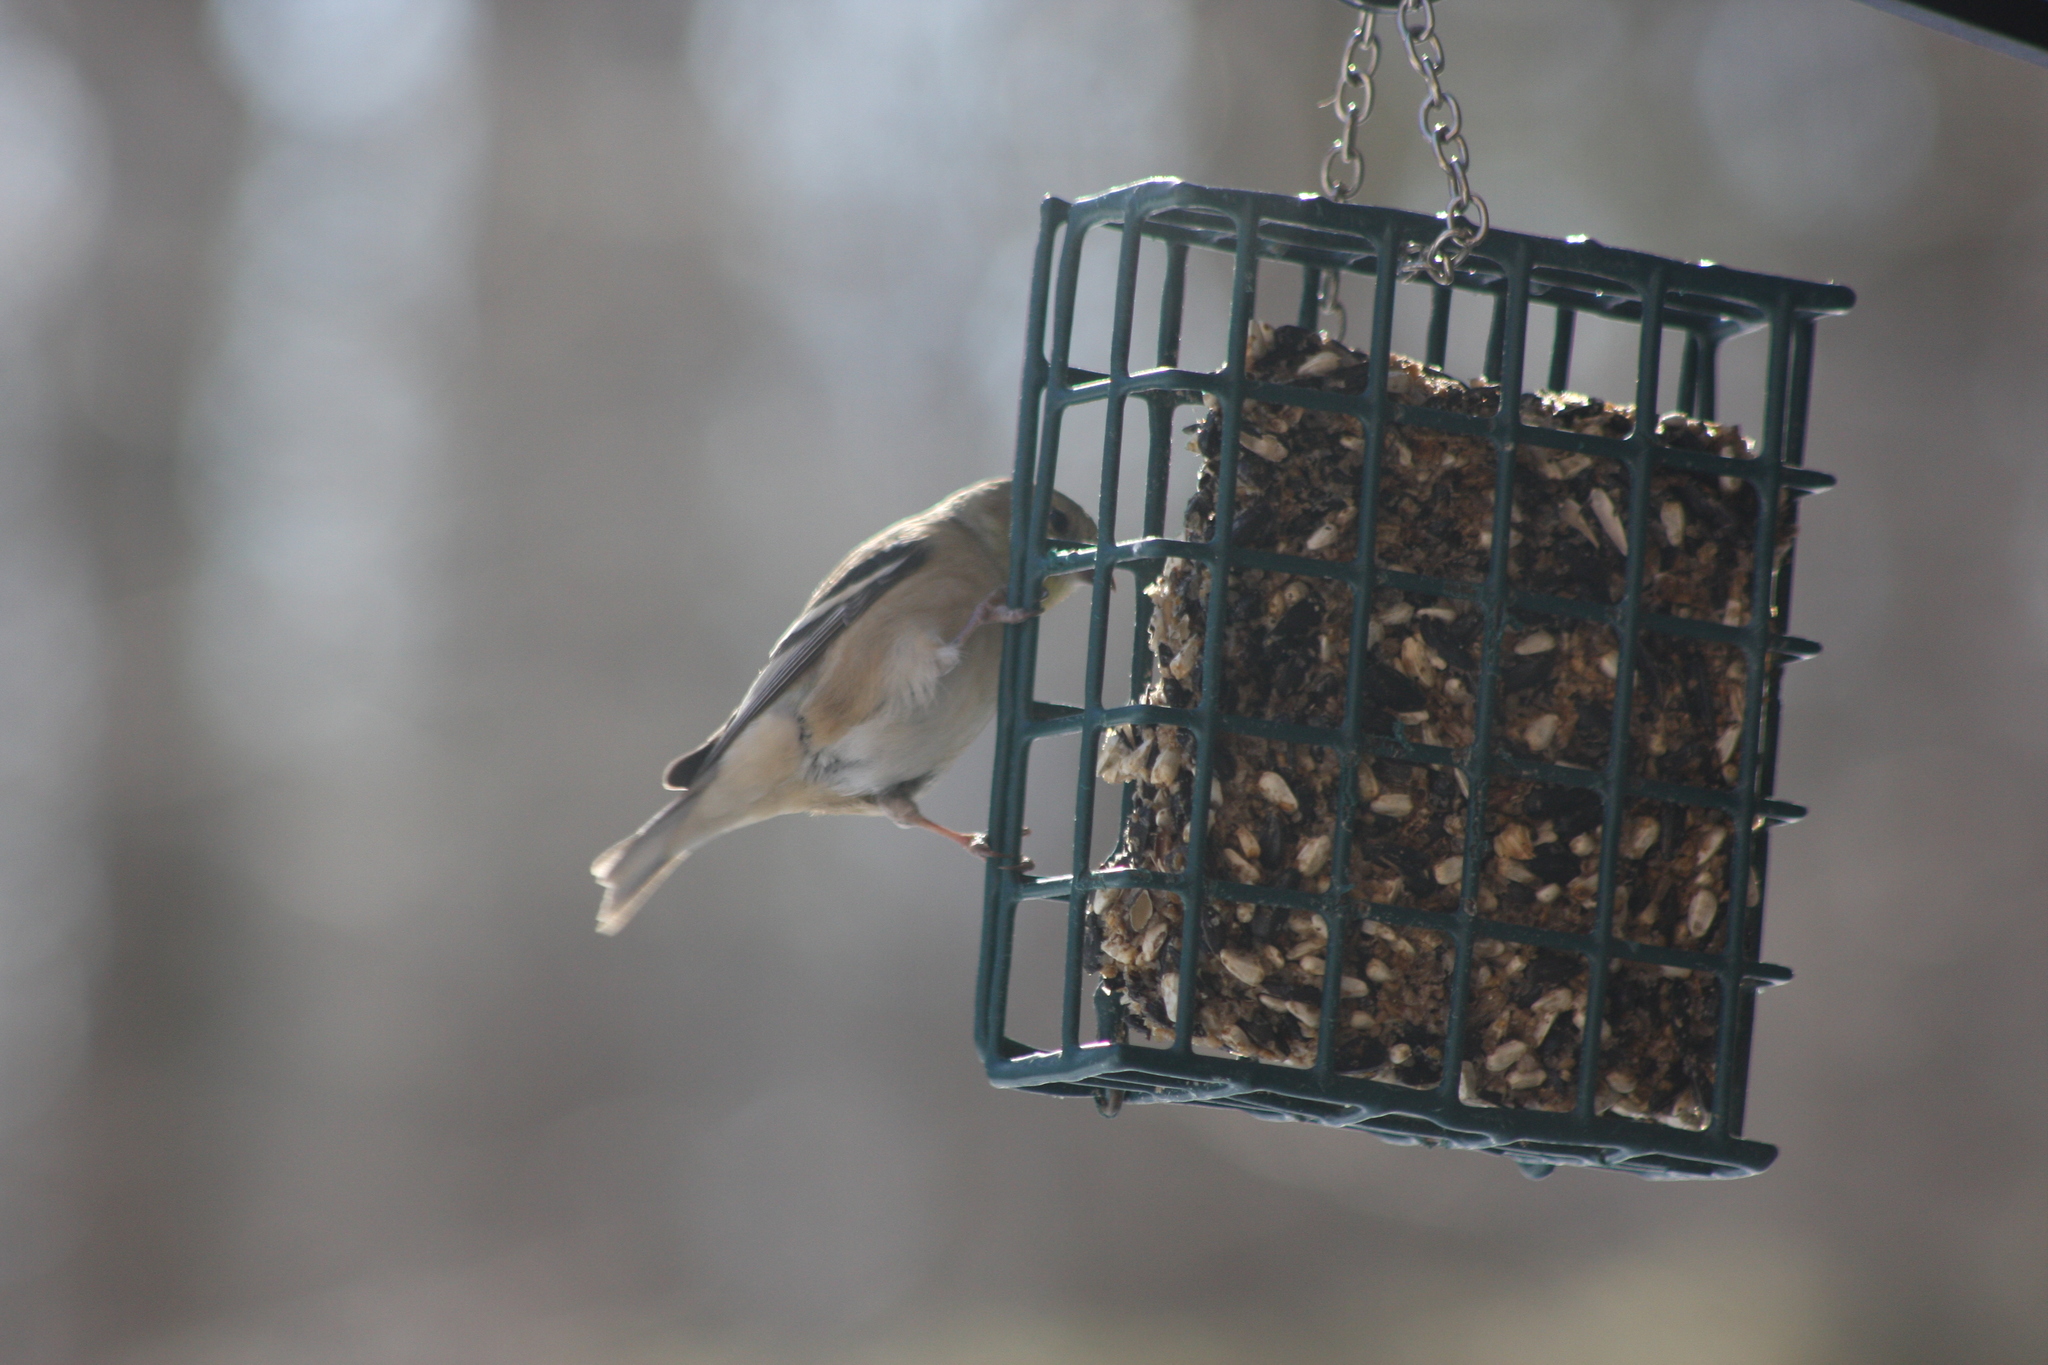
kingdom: Animalia
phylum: Chordata
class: Aves
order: Passeriformes
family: Fringillidae
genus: Spinus
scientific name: Spinus tristis
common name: American goldfinch
